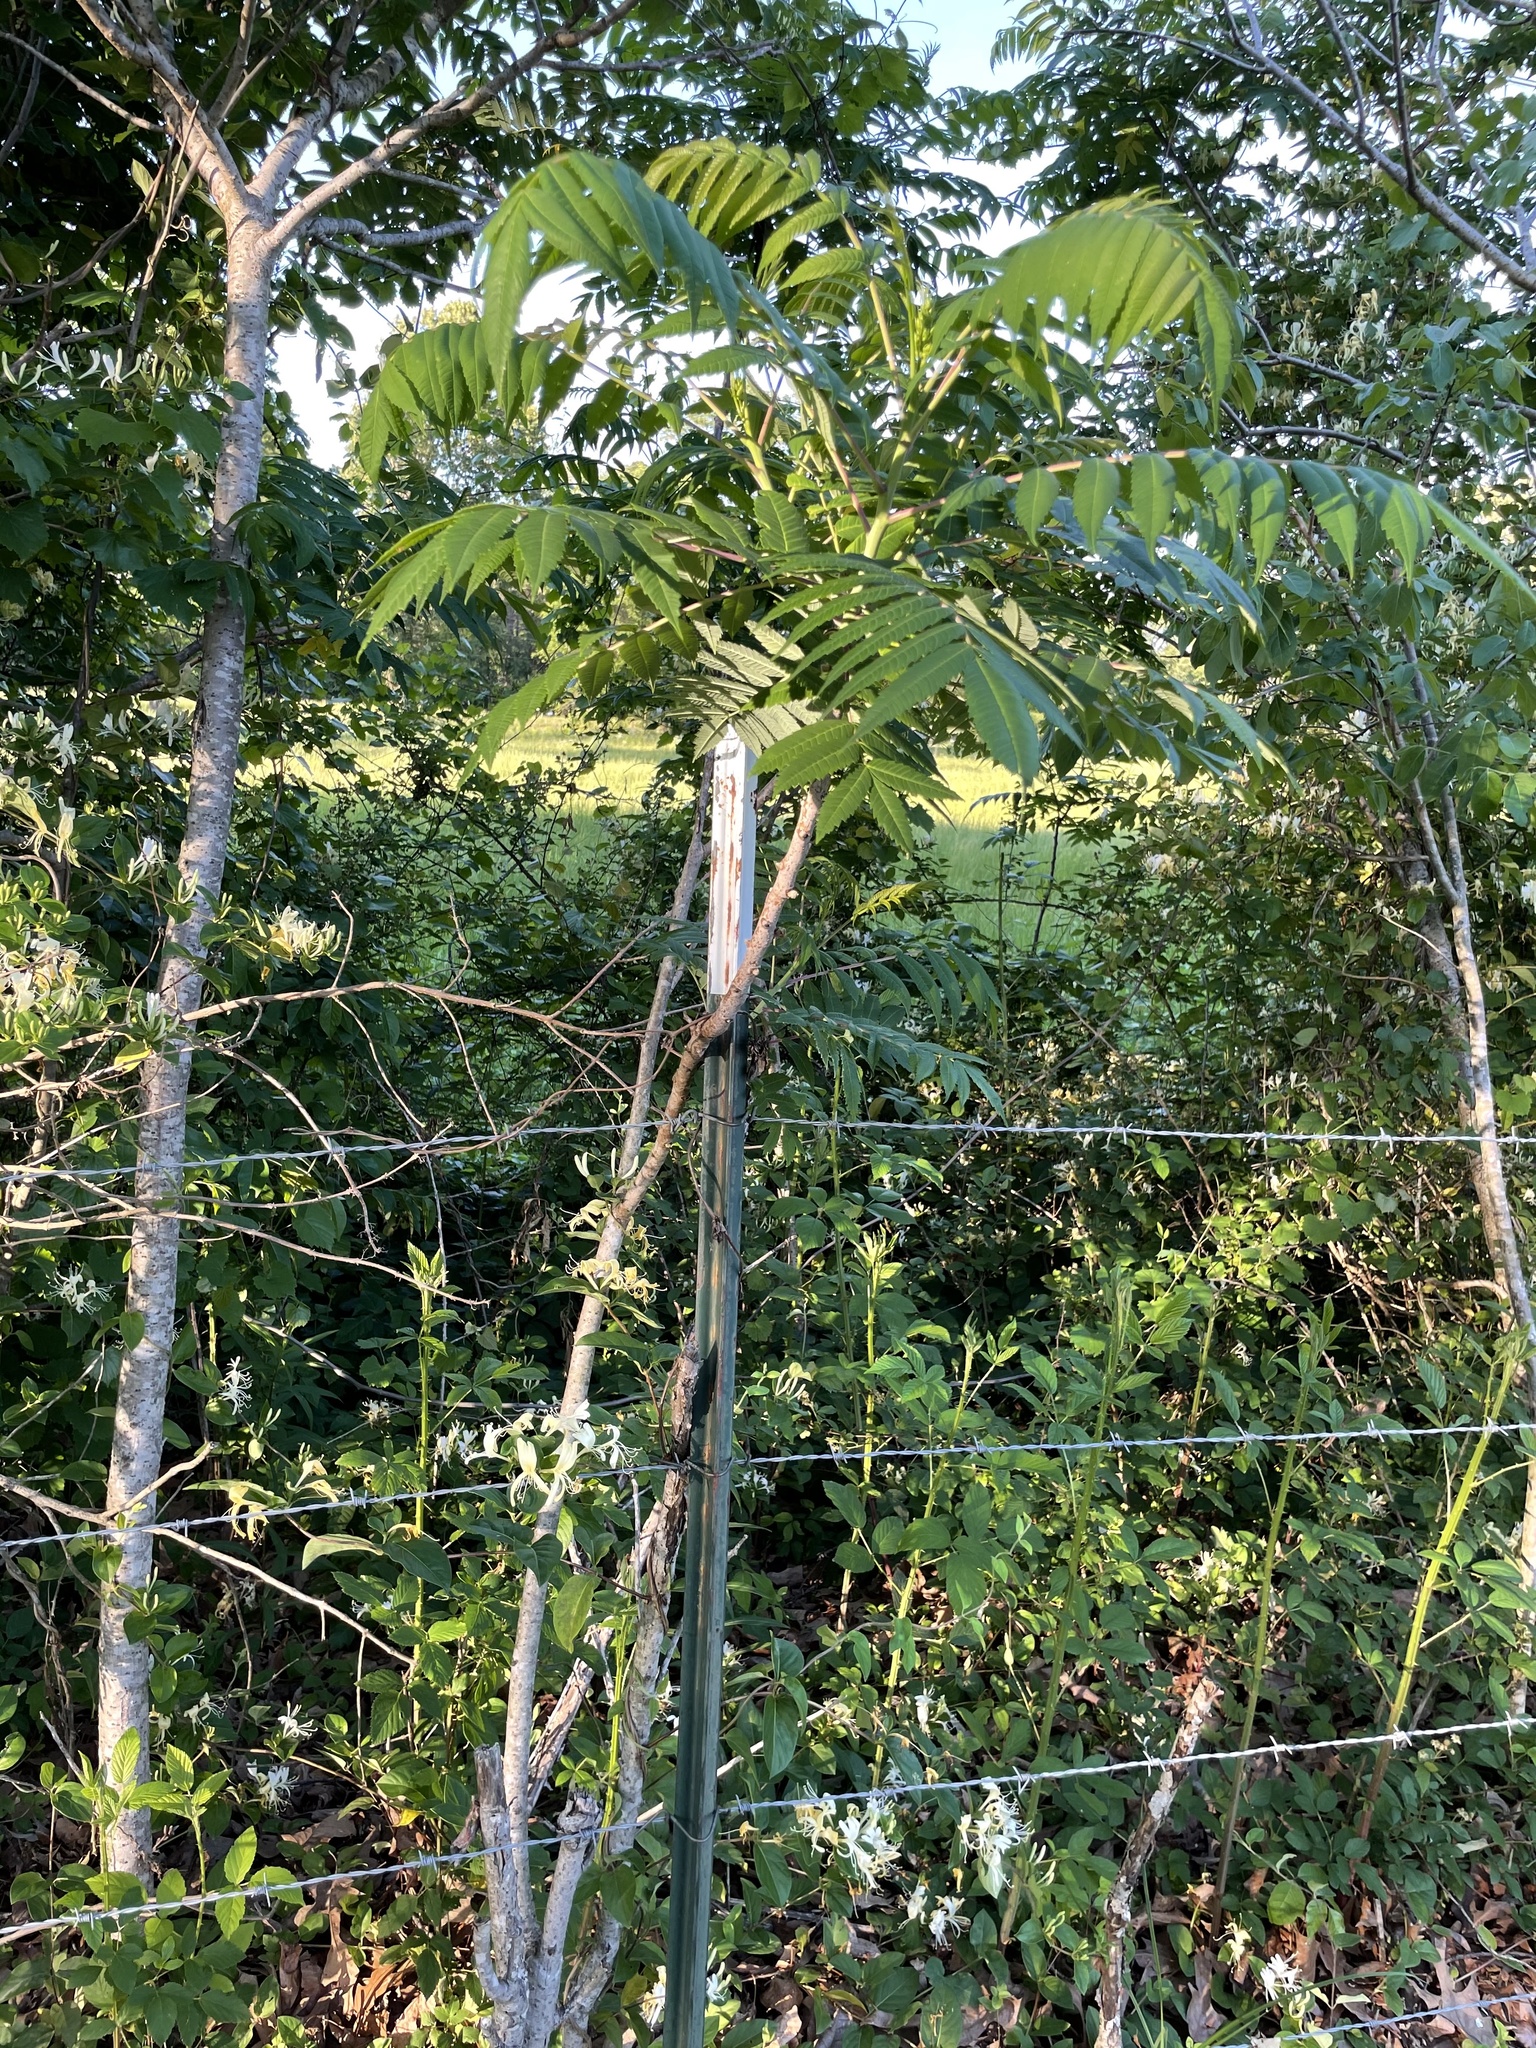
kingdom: Plantae
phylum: Tracheophyta
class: Magnoliopsida
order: Sapindales
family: Anacardiaceae
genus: Rhus
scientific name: Rhus glabra
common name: Scarlet sumac
